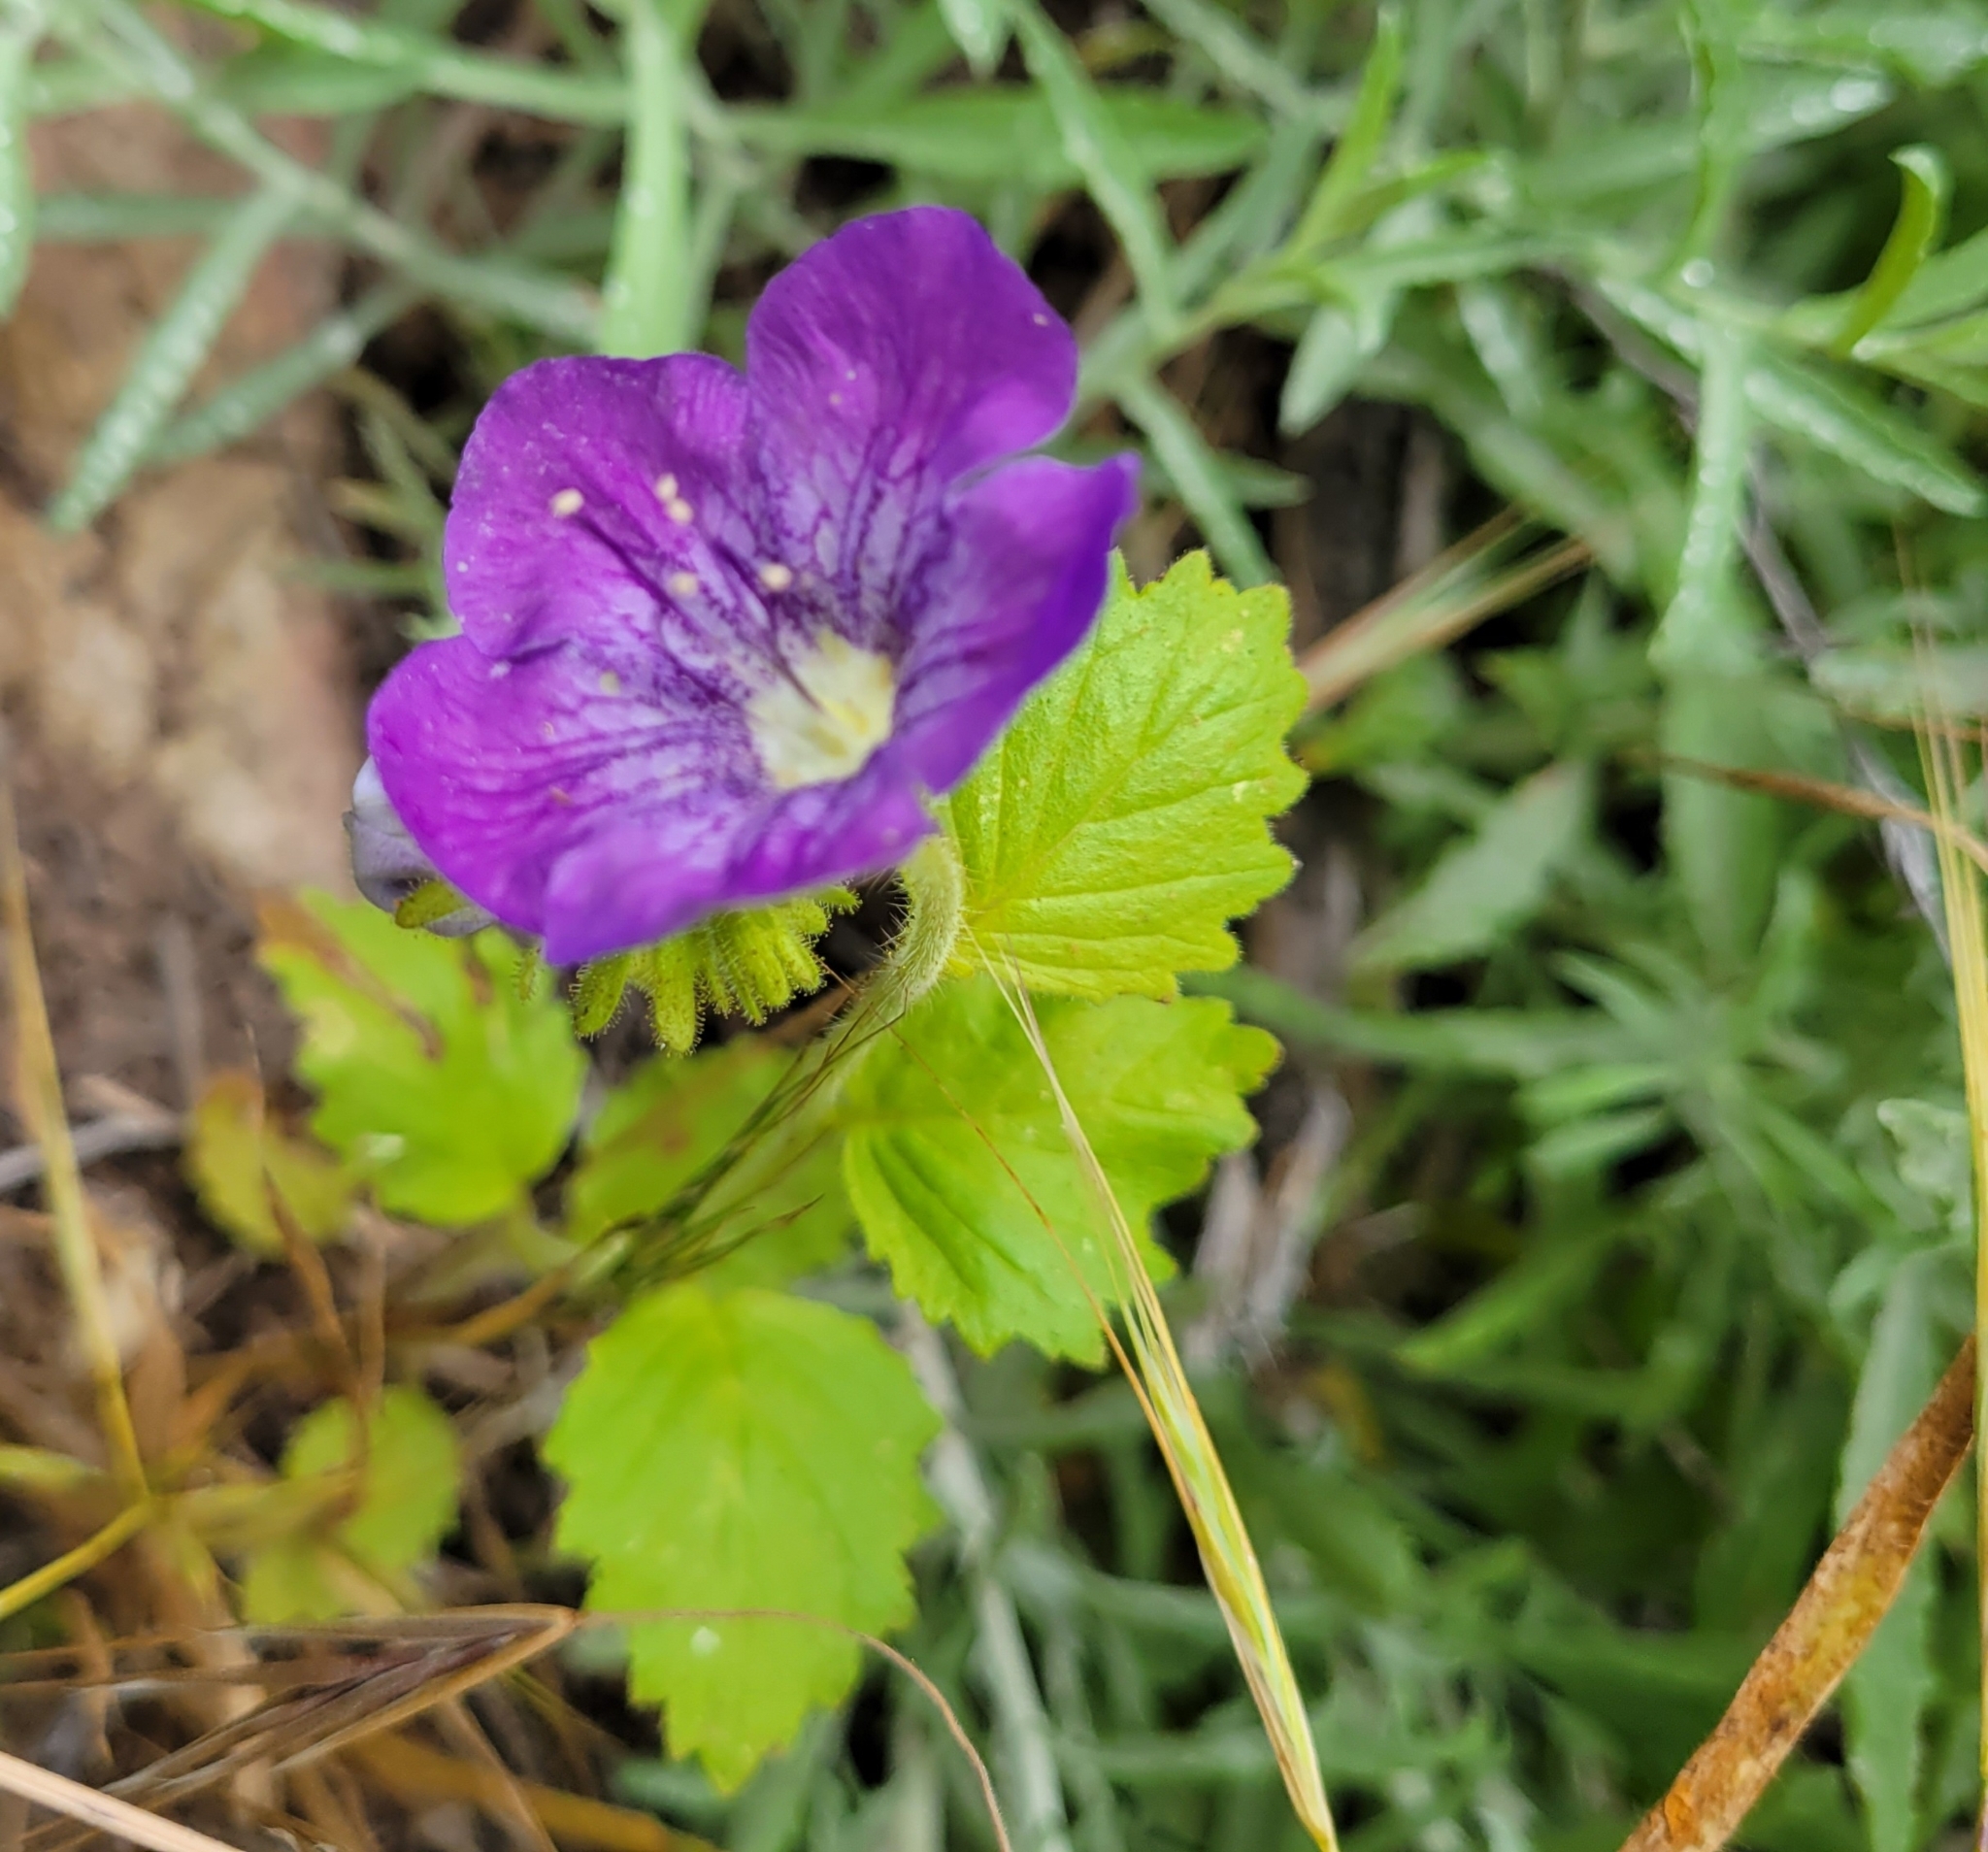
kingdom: Plantae
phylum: Tracheophyta
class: Magnoliopsida
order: Boraginales
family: Hydrophyllaceae
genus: Phacelia
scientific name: Phacelia grandiflora
